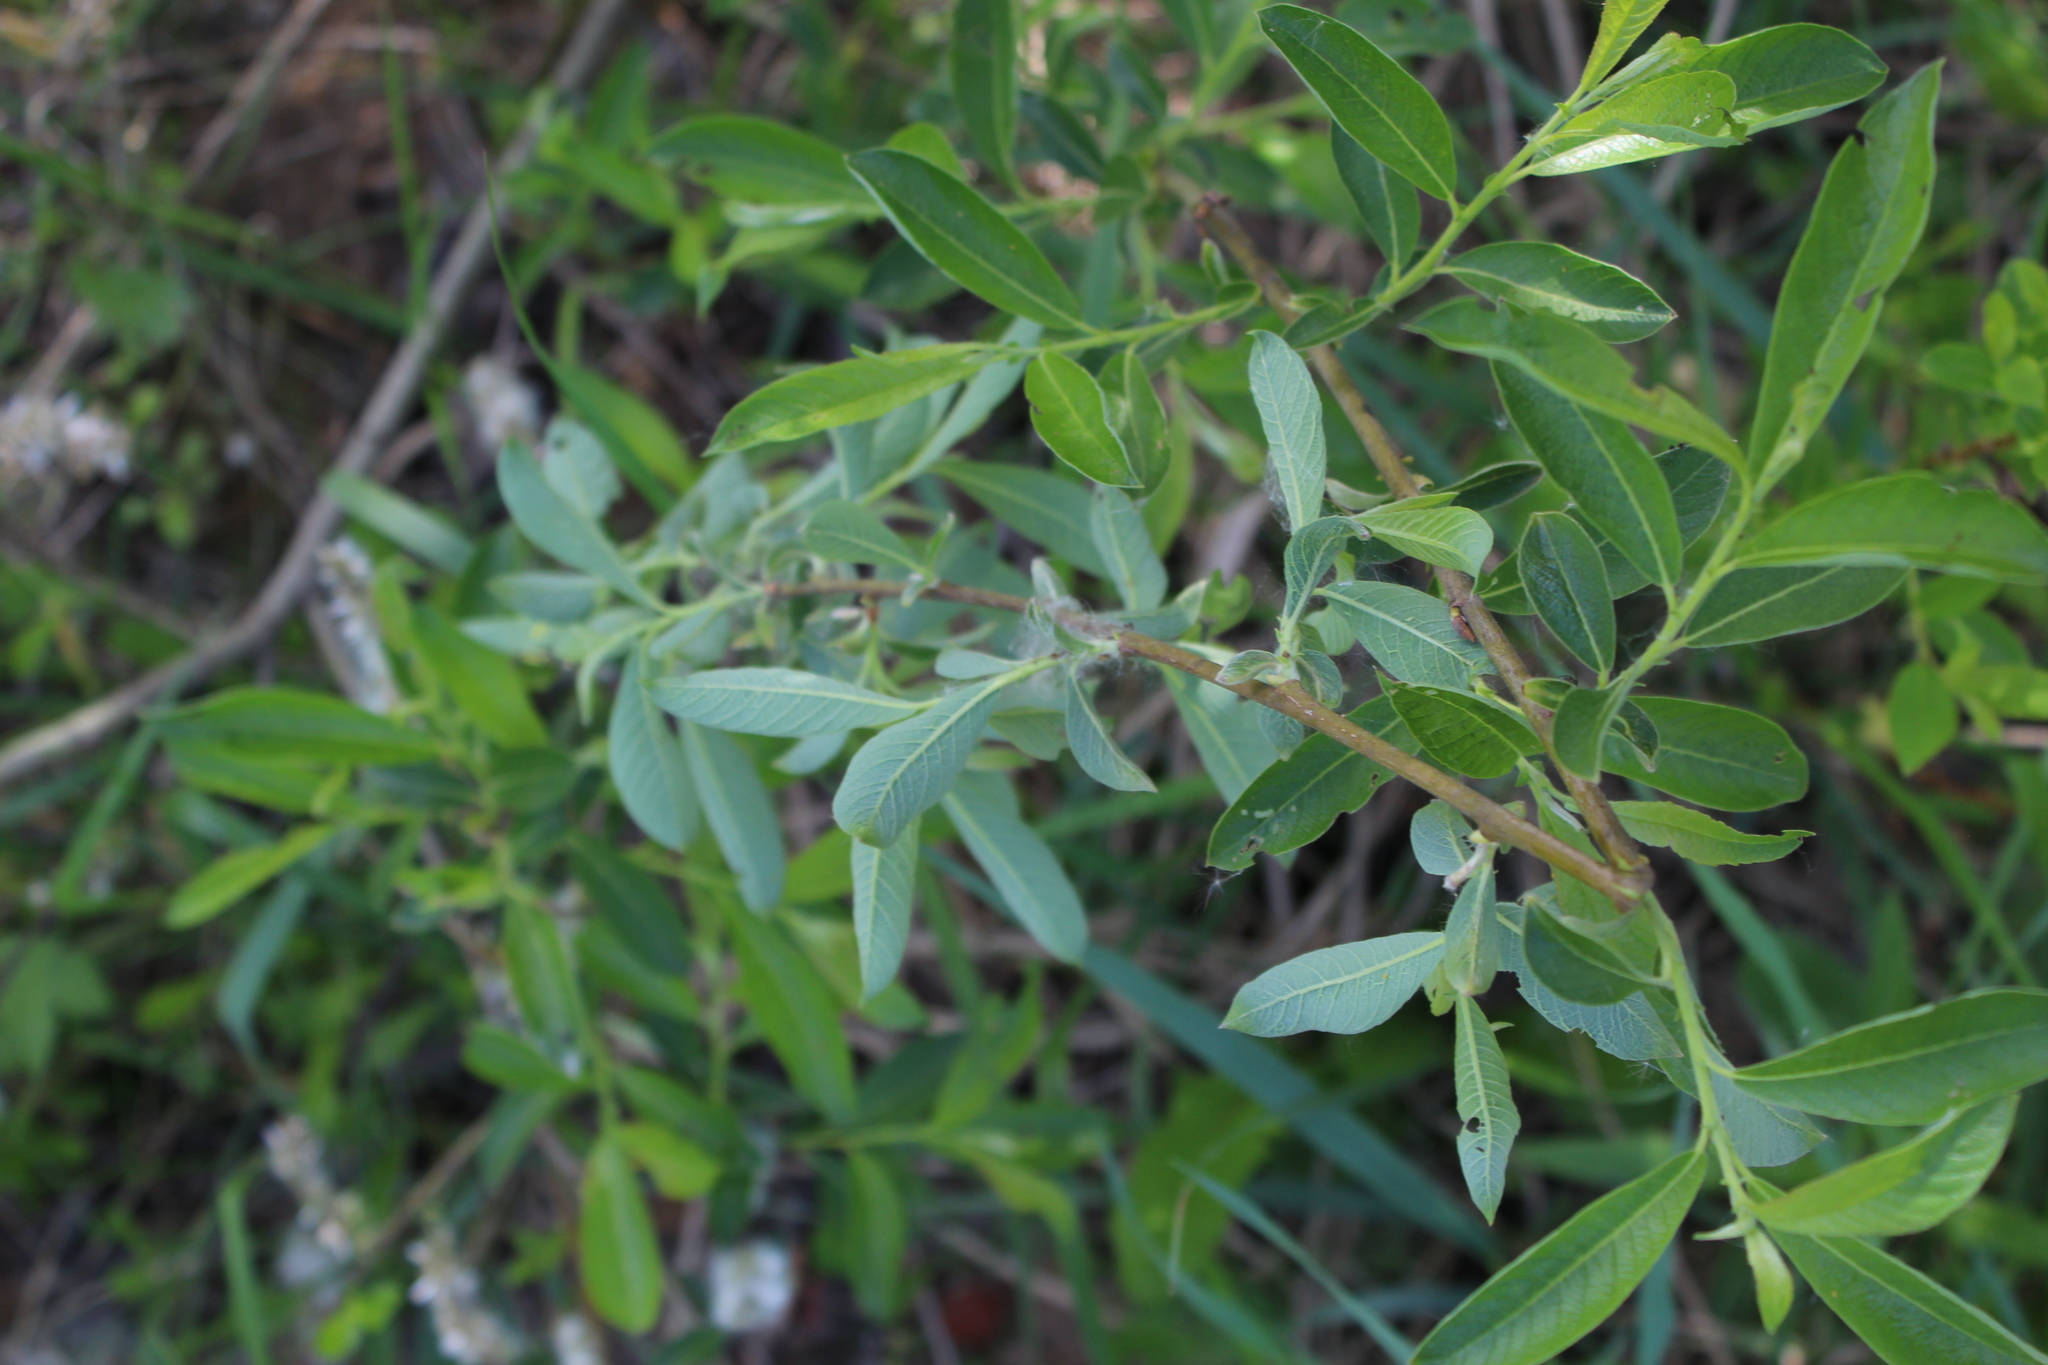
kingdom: Plantae
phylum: Tracheophyta
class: Magnoliopsida
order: Malpighiales
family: Salicaceae
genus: Salix
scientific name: Salix cinerea
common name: Common sallow
